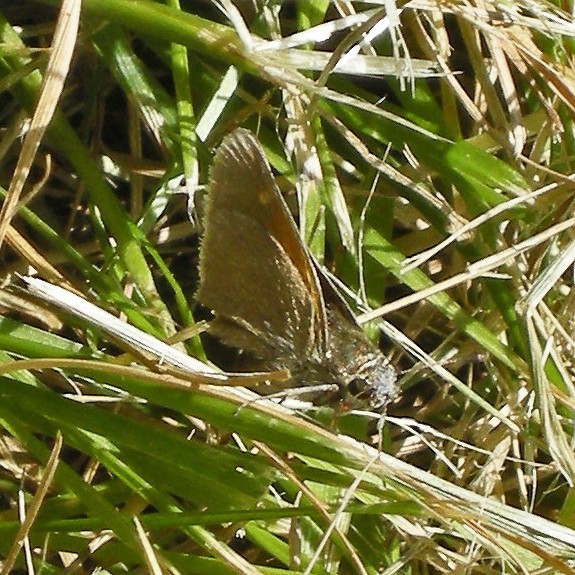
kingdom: Animalia
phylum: Arthropoda
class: Insecta
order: Lepidoptera
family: Hesperiidae
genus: Polites
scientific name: Polites themistocles
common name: Tawny-edged skipper
